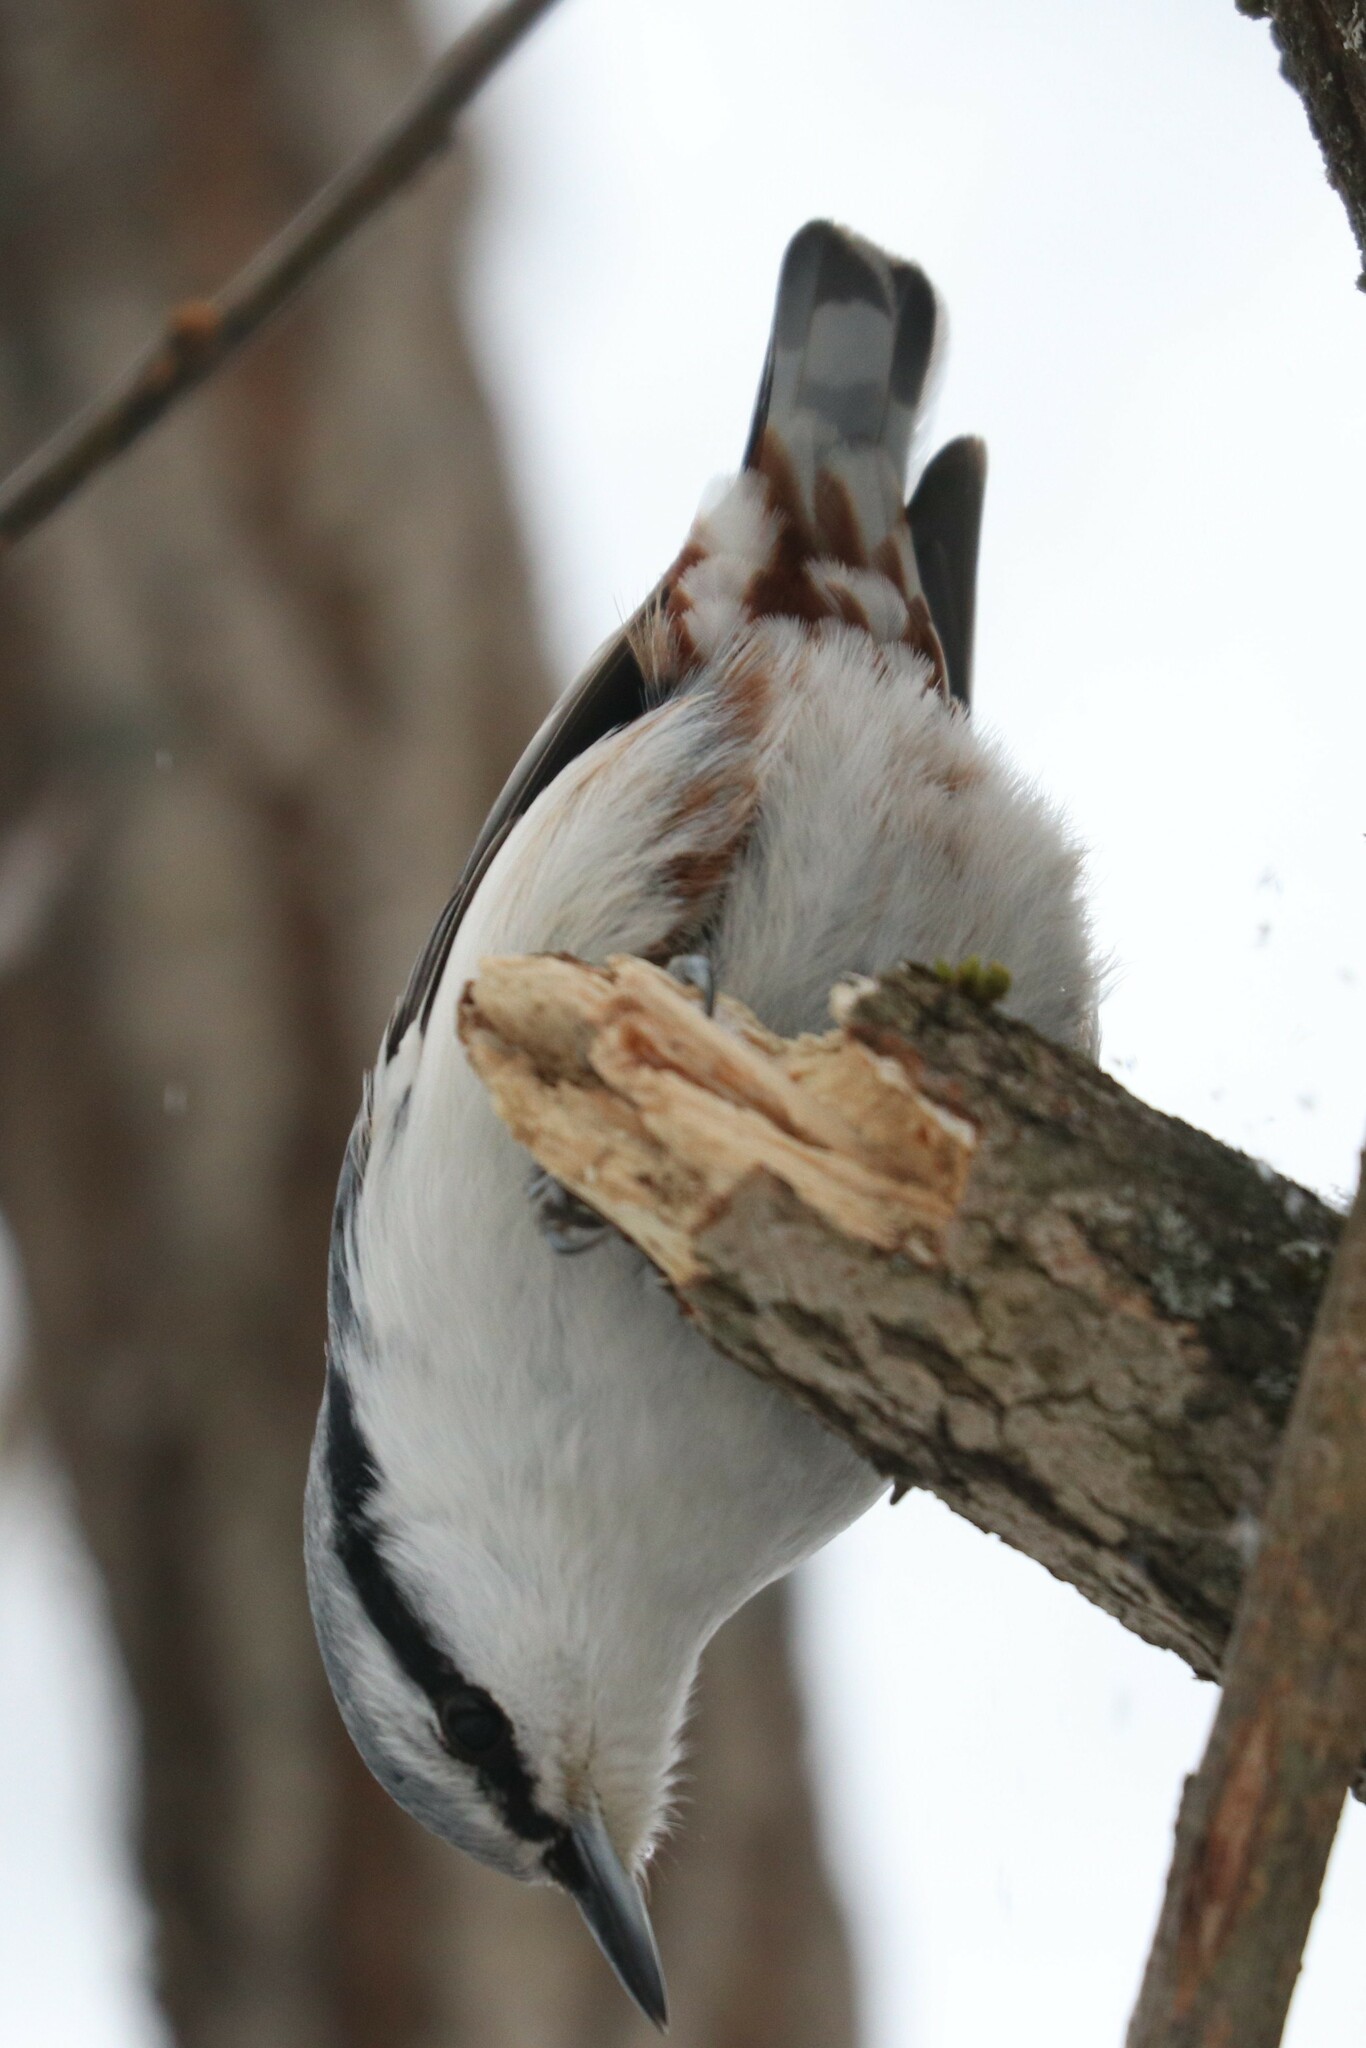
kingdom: Animalia
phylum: Chordata
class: Aves
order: Passeriformes
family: Sittidae
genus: Sitta
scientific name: Sitta europaea
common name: Eurasian nuthatch
